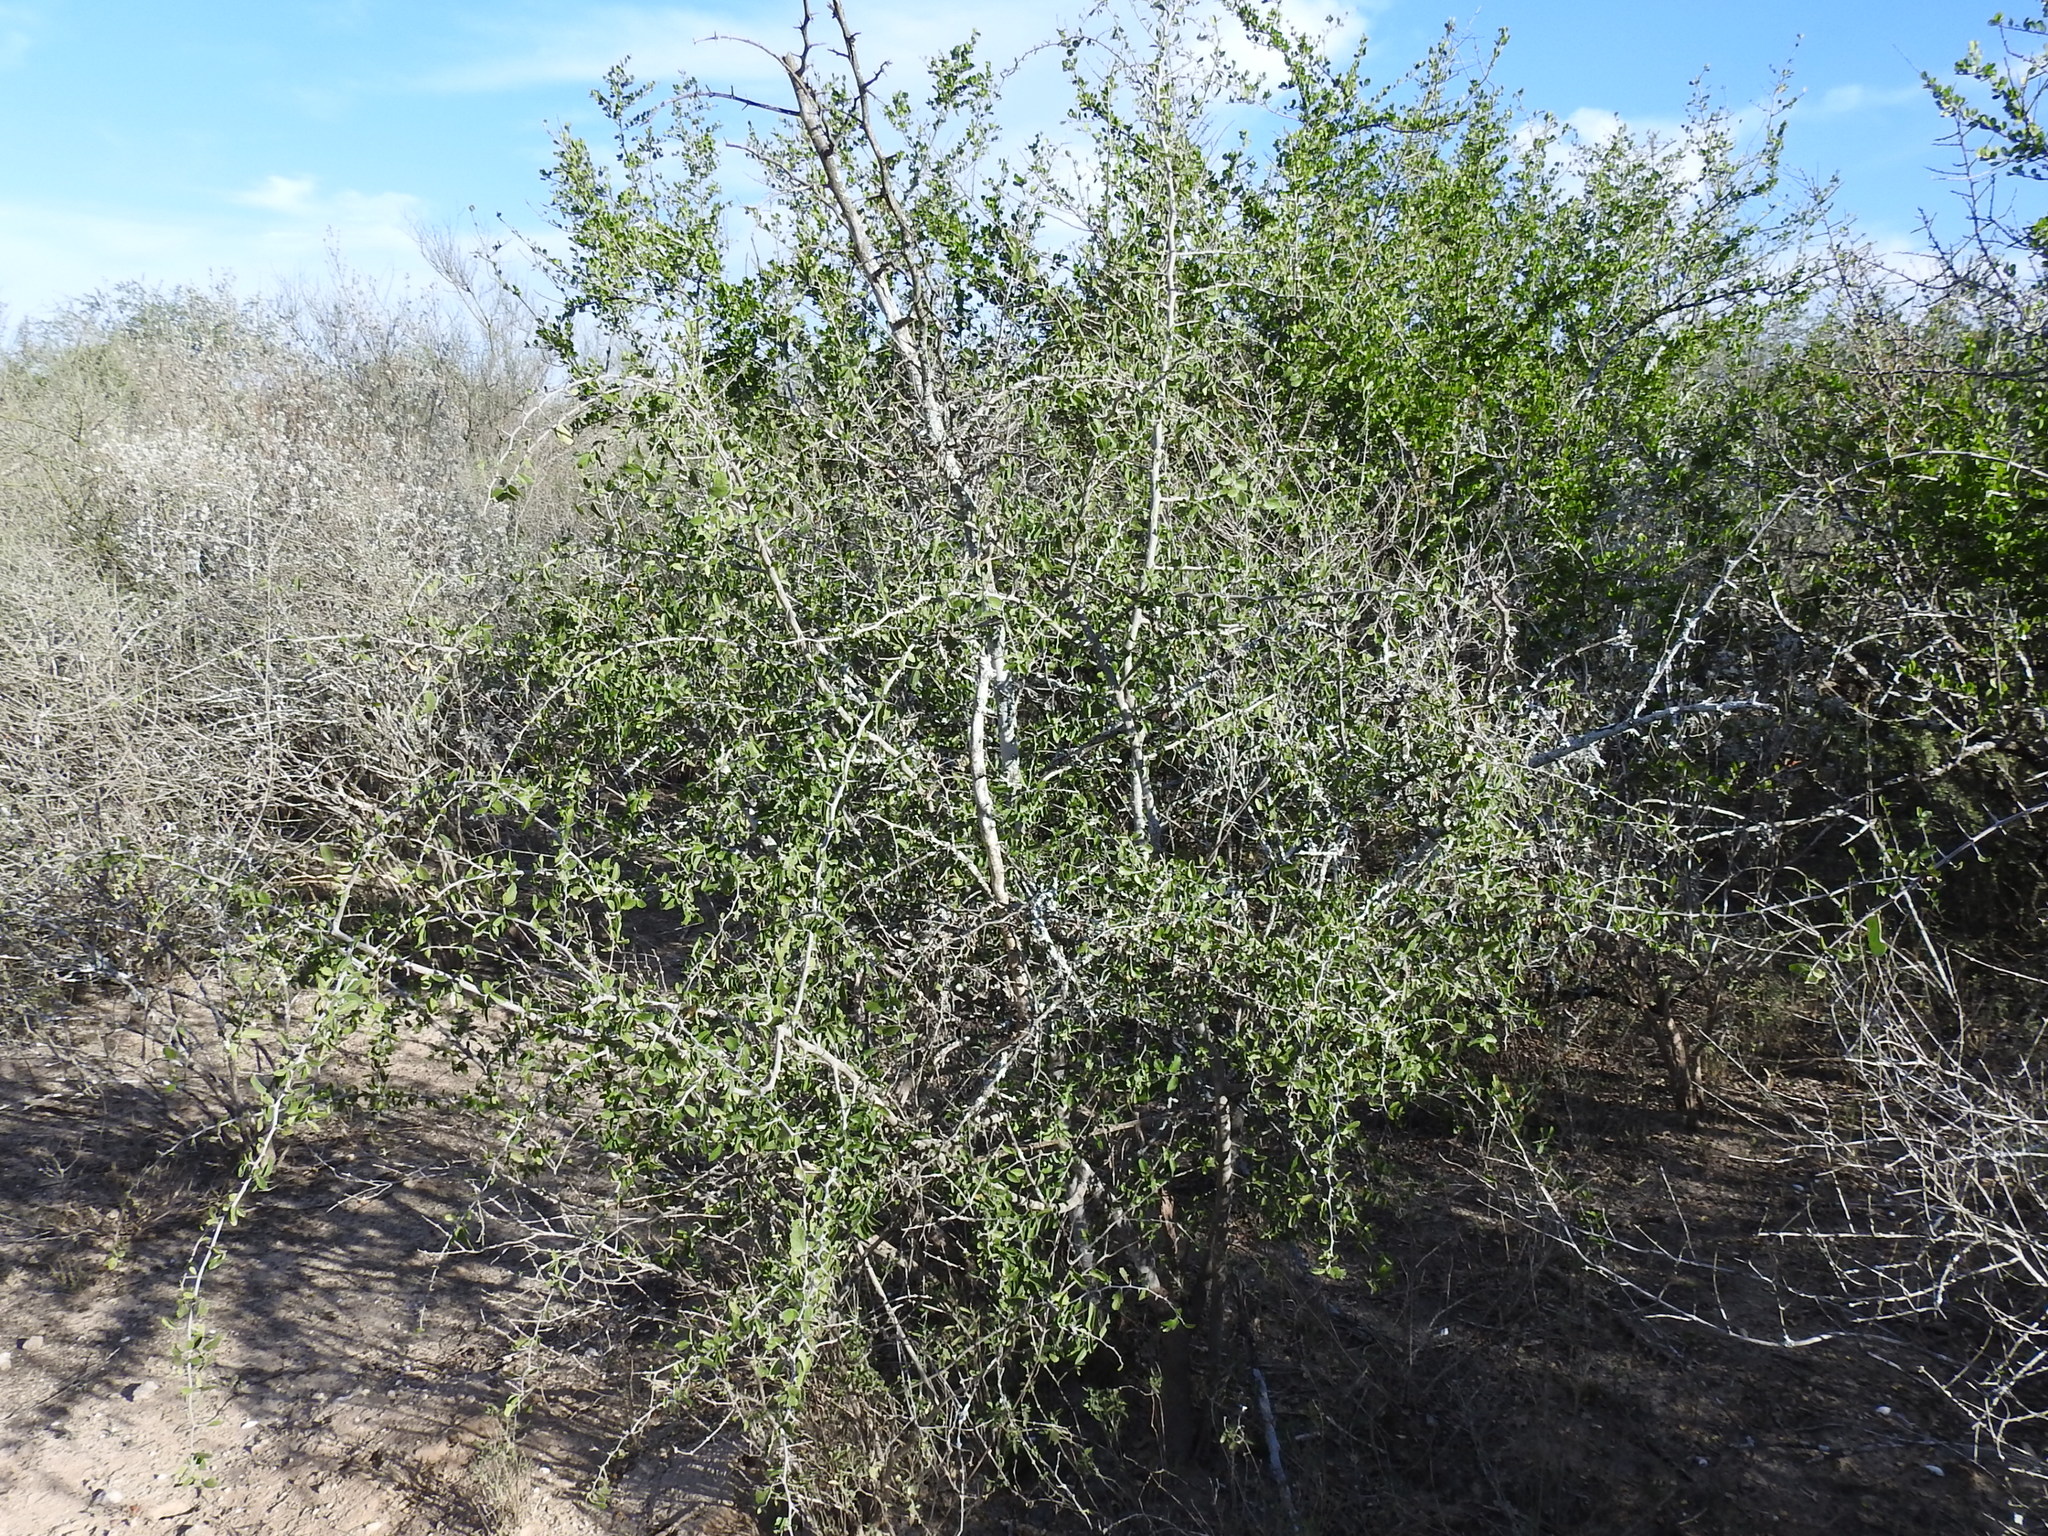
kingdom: Plantae
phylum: Tracheophyta
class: Magnoliopsida
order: Rosales
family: Cannabaceae
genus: Celtis
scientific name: Celtis pallida
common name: Desert hackberry
